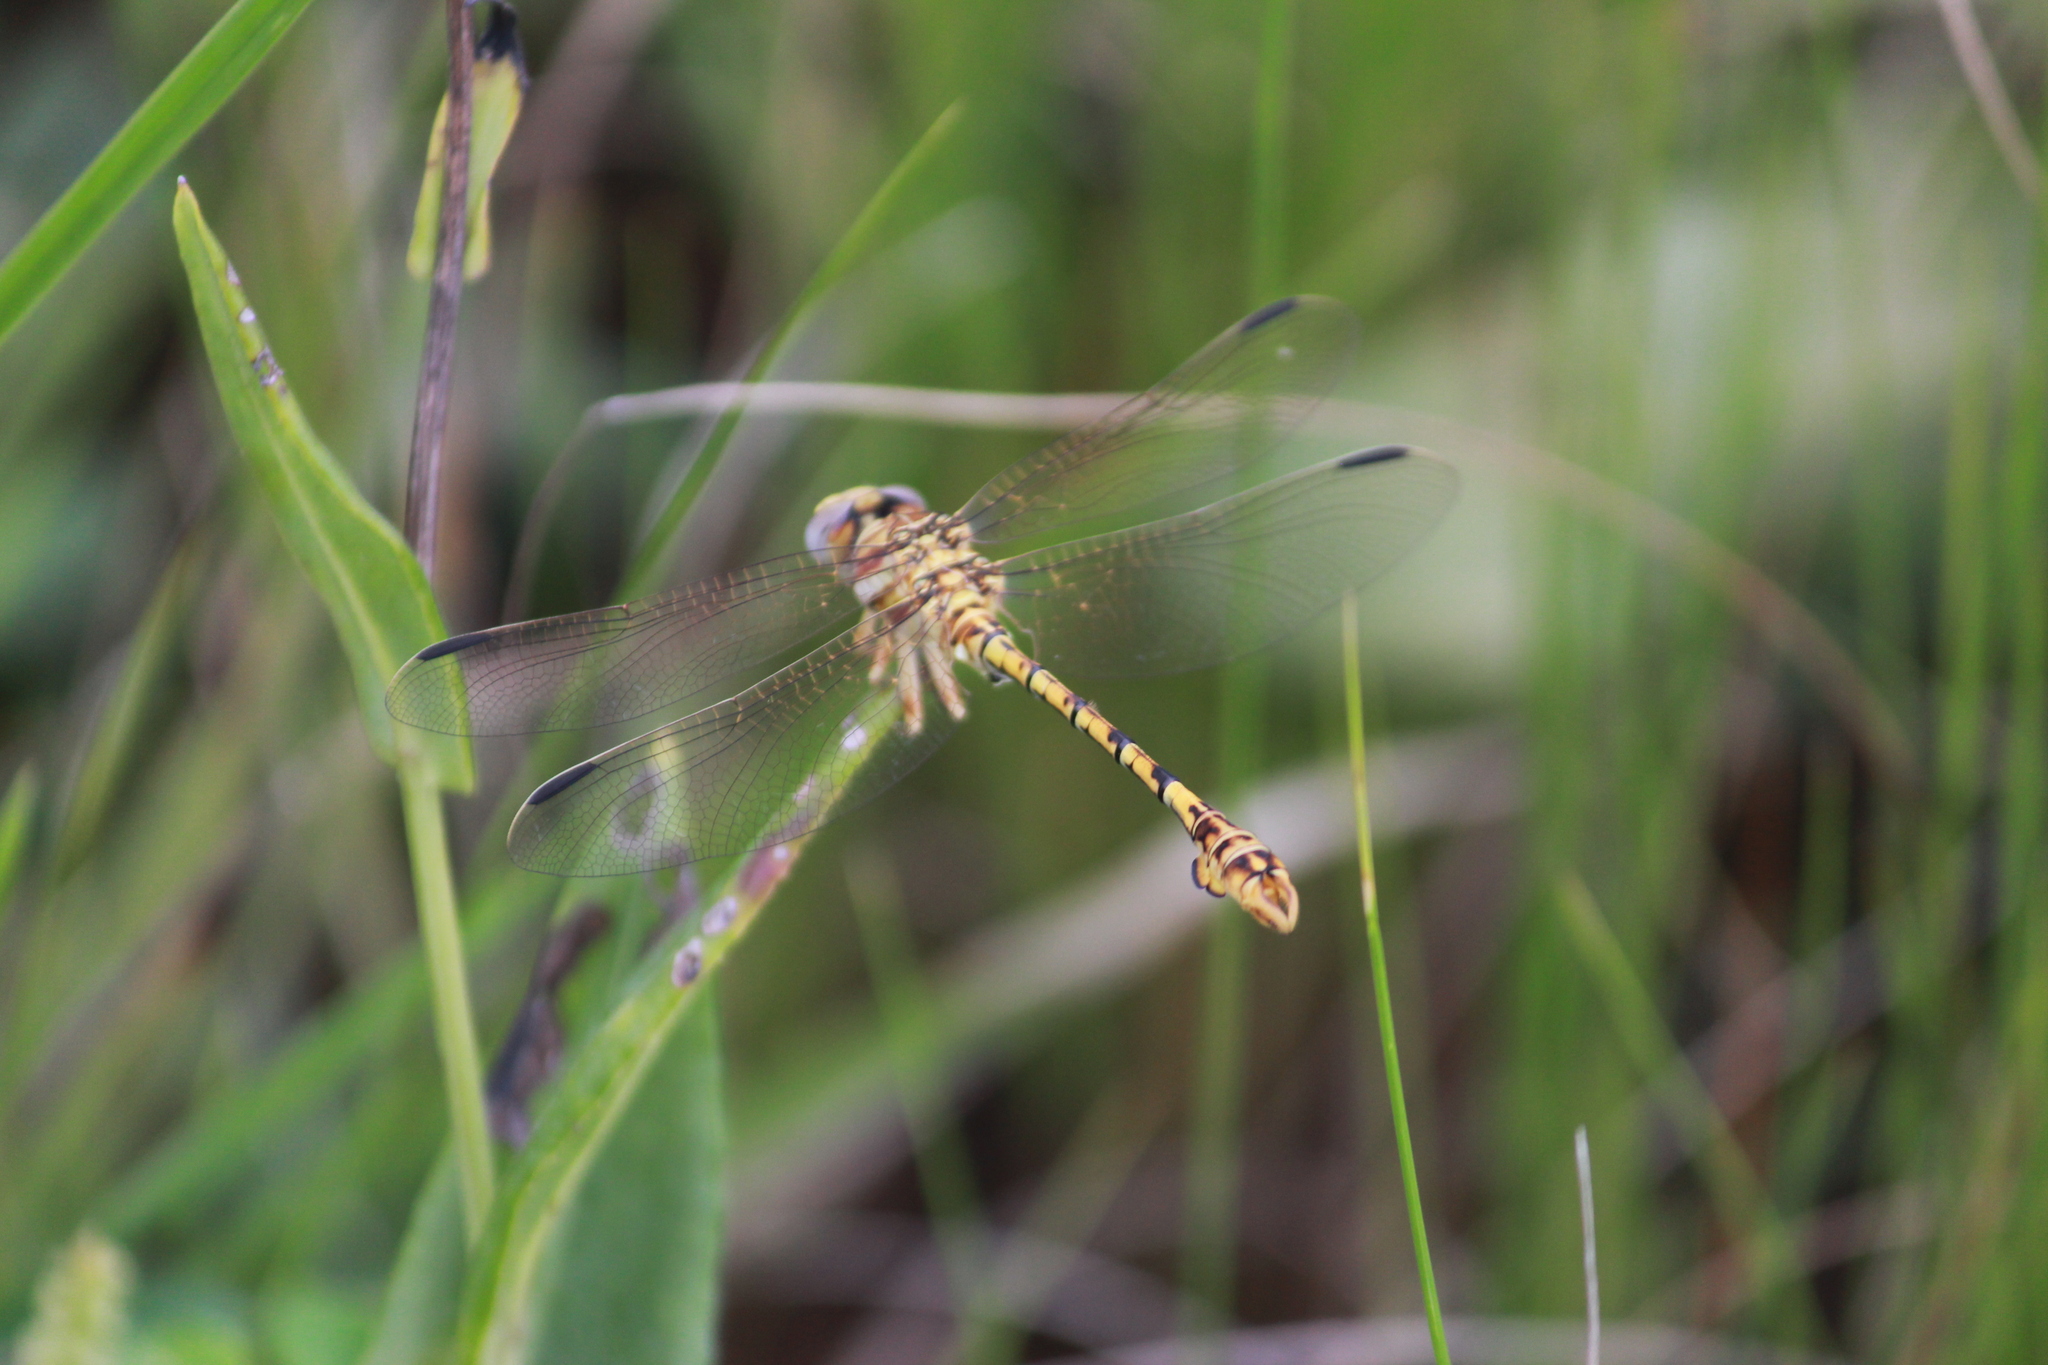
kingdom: Animalia
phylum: Arthropoda
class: Insecta
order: Odonata
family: Gomphidae
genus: Crenigomphus
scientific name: Crenigomphus hartmanni
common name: Clubbed talontail
